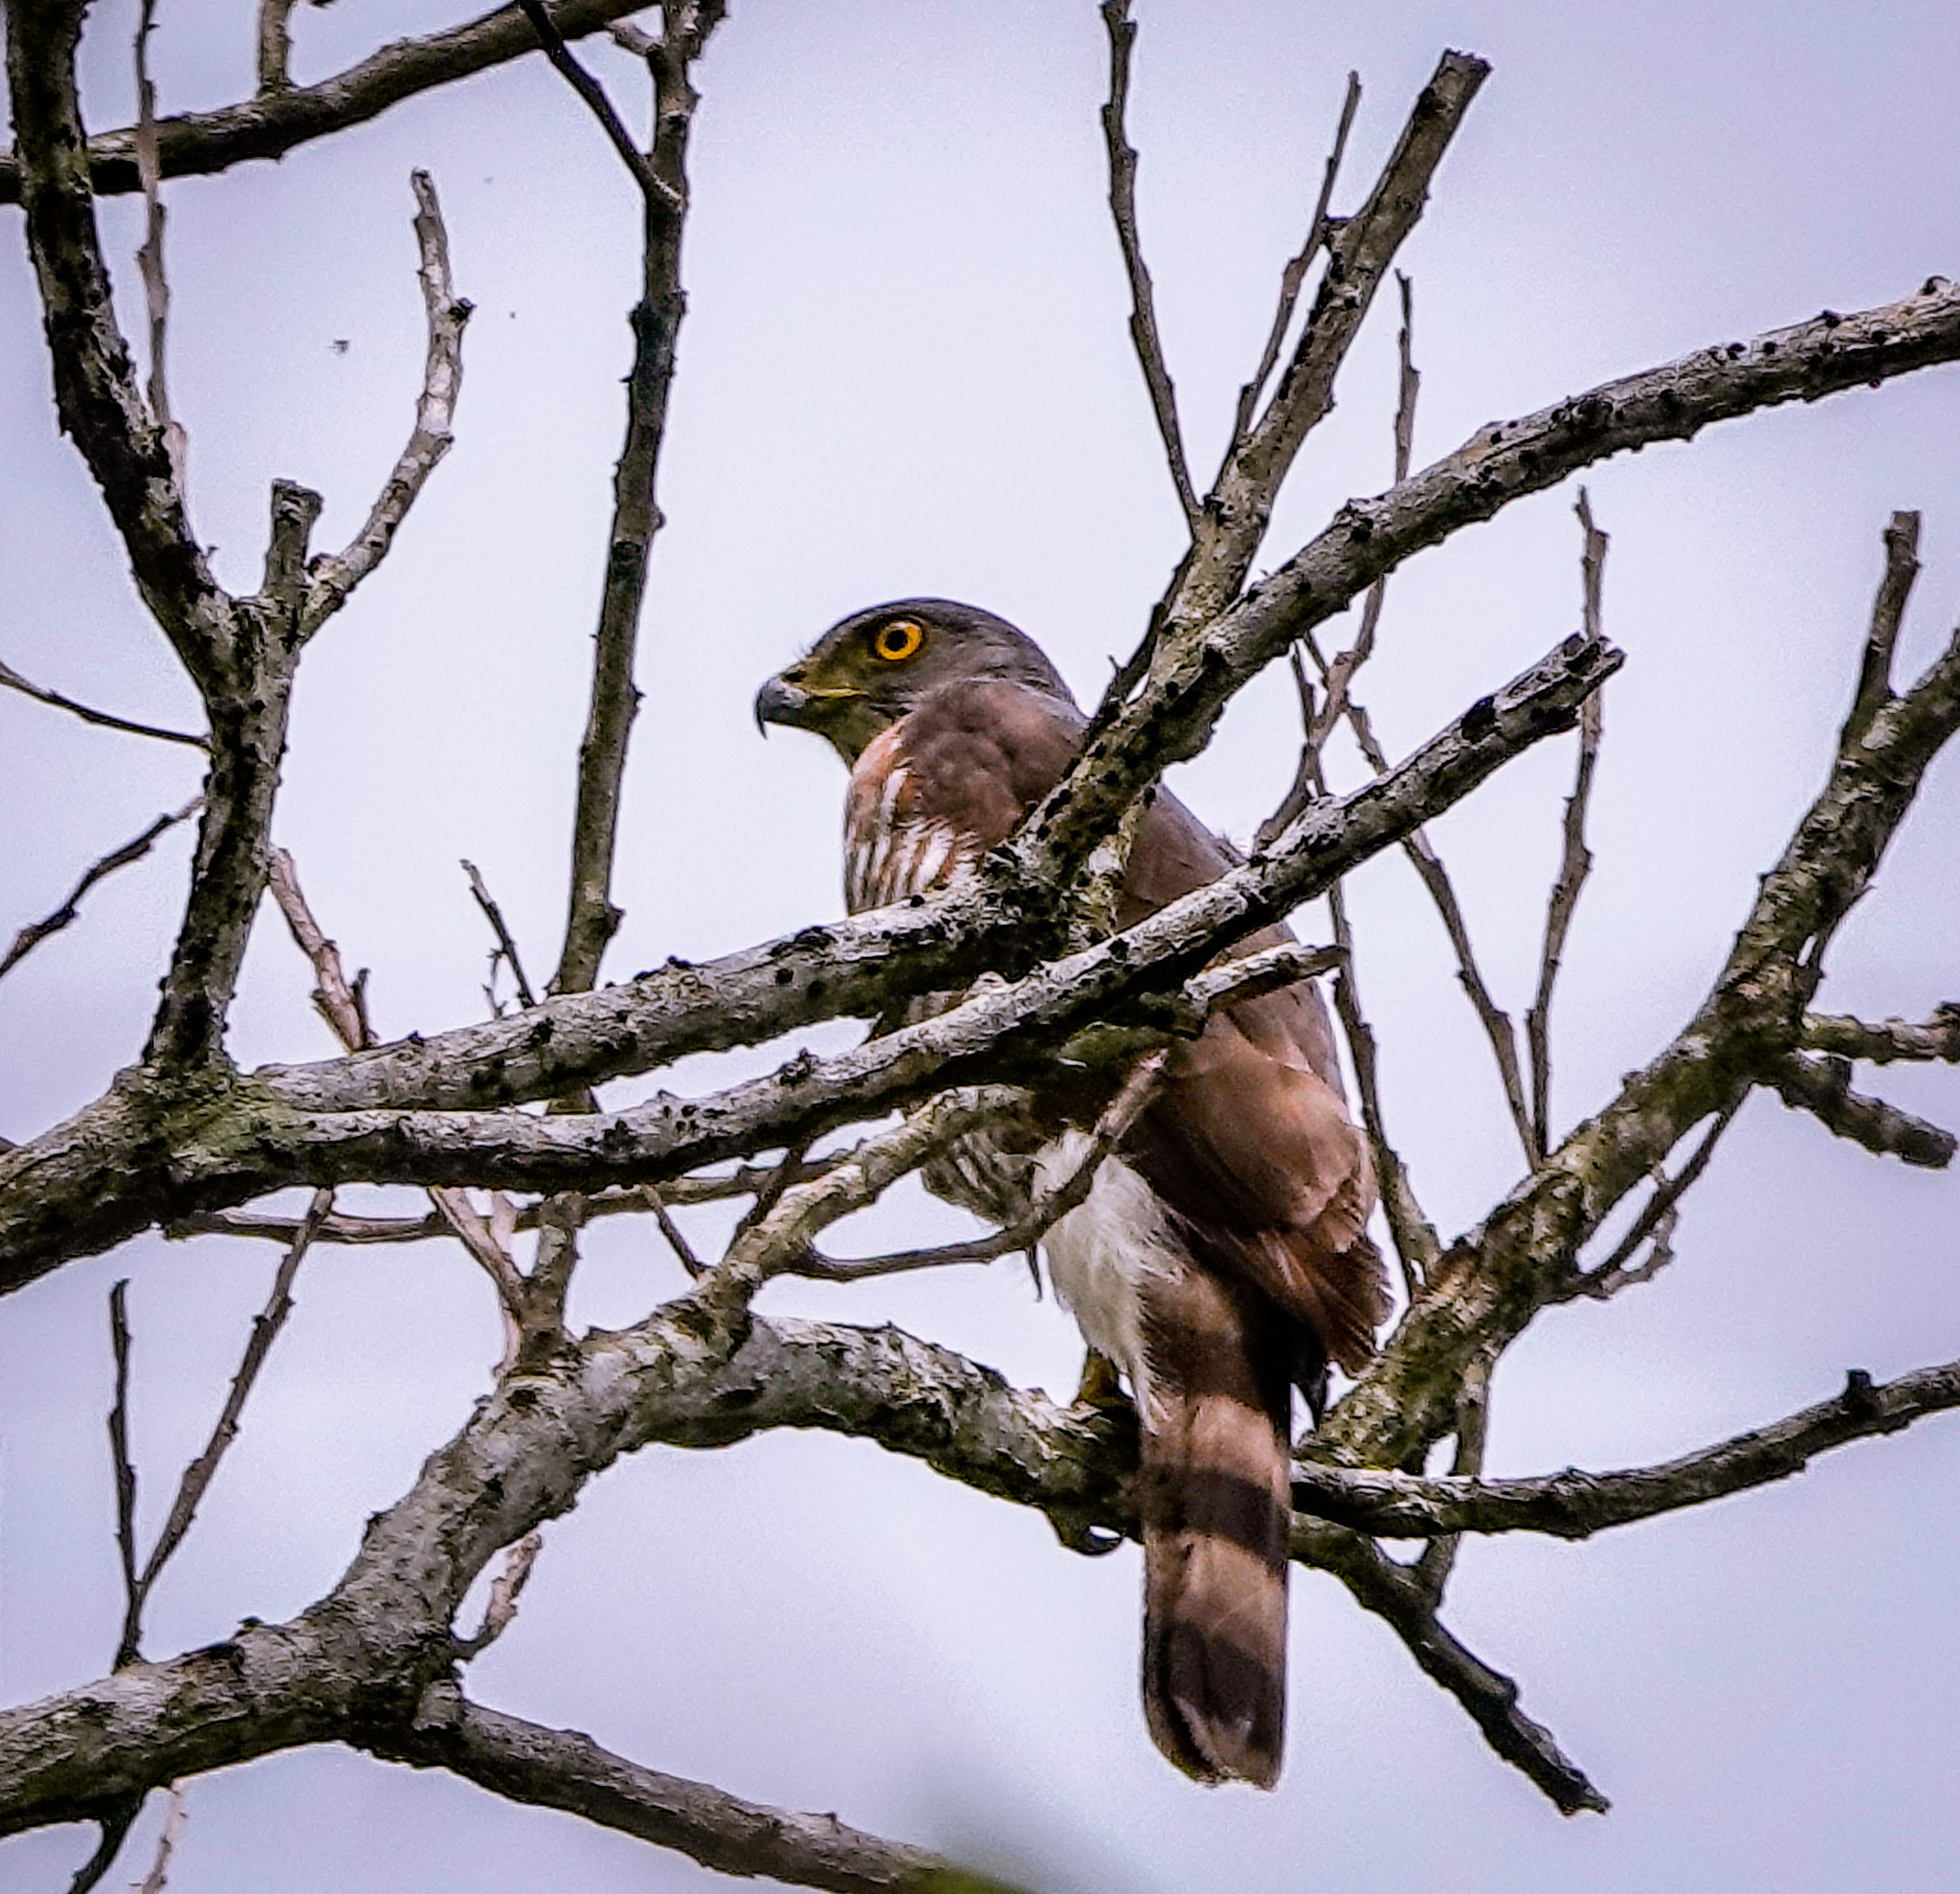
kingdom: Animalia
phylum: Chordata
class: Aves
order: Accipitriformes
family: Accipitridae
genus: Accipiter
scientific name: Accipiter trivirgatus
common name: Crested goshawk
